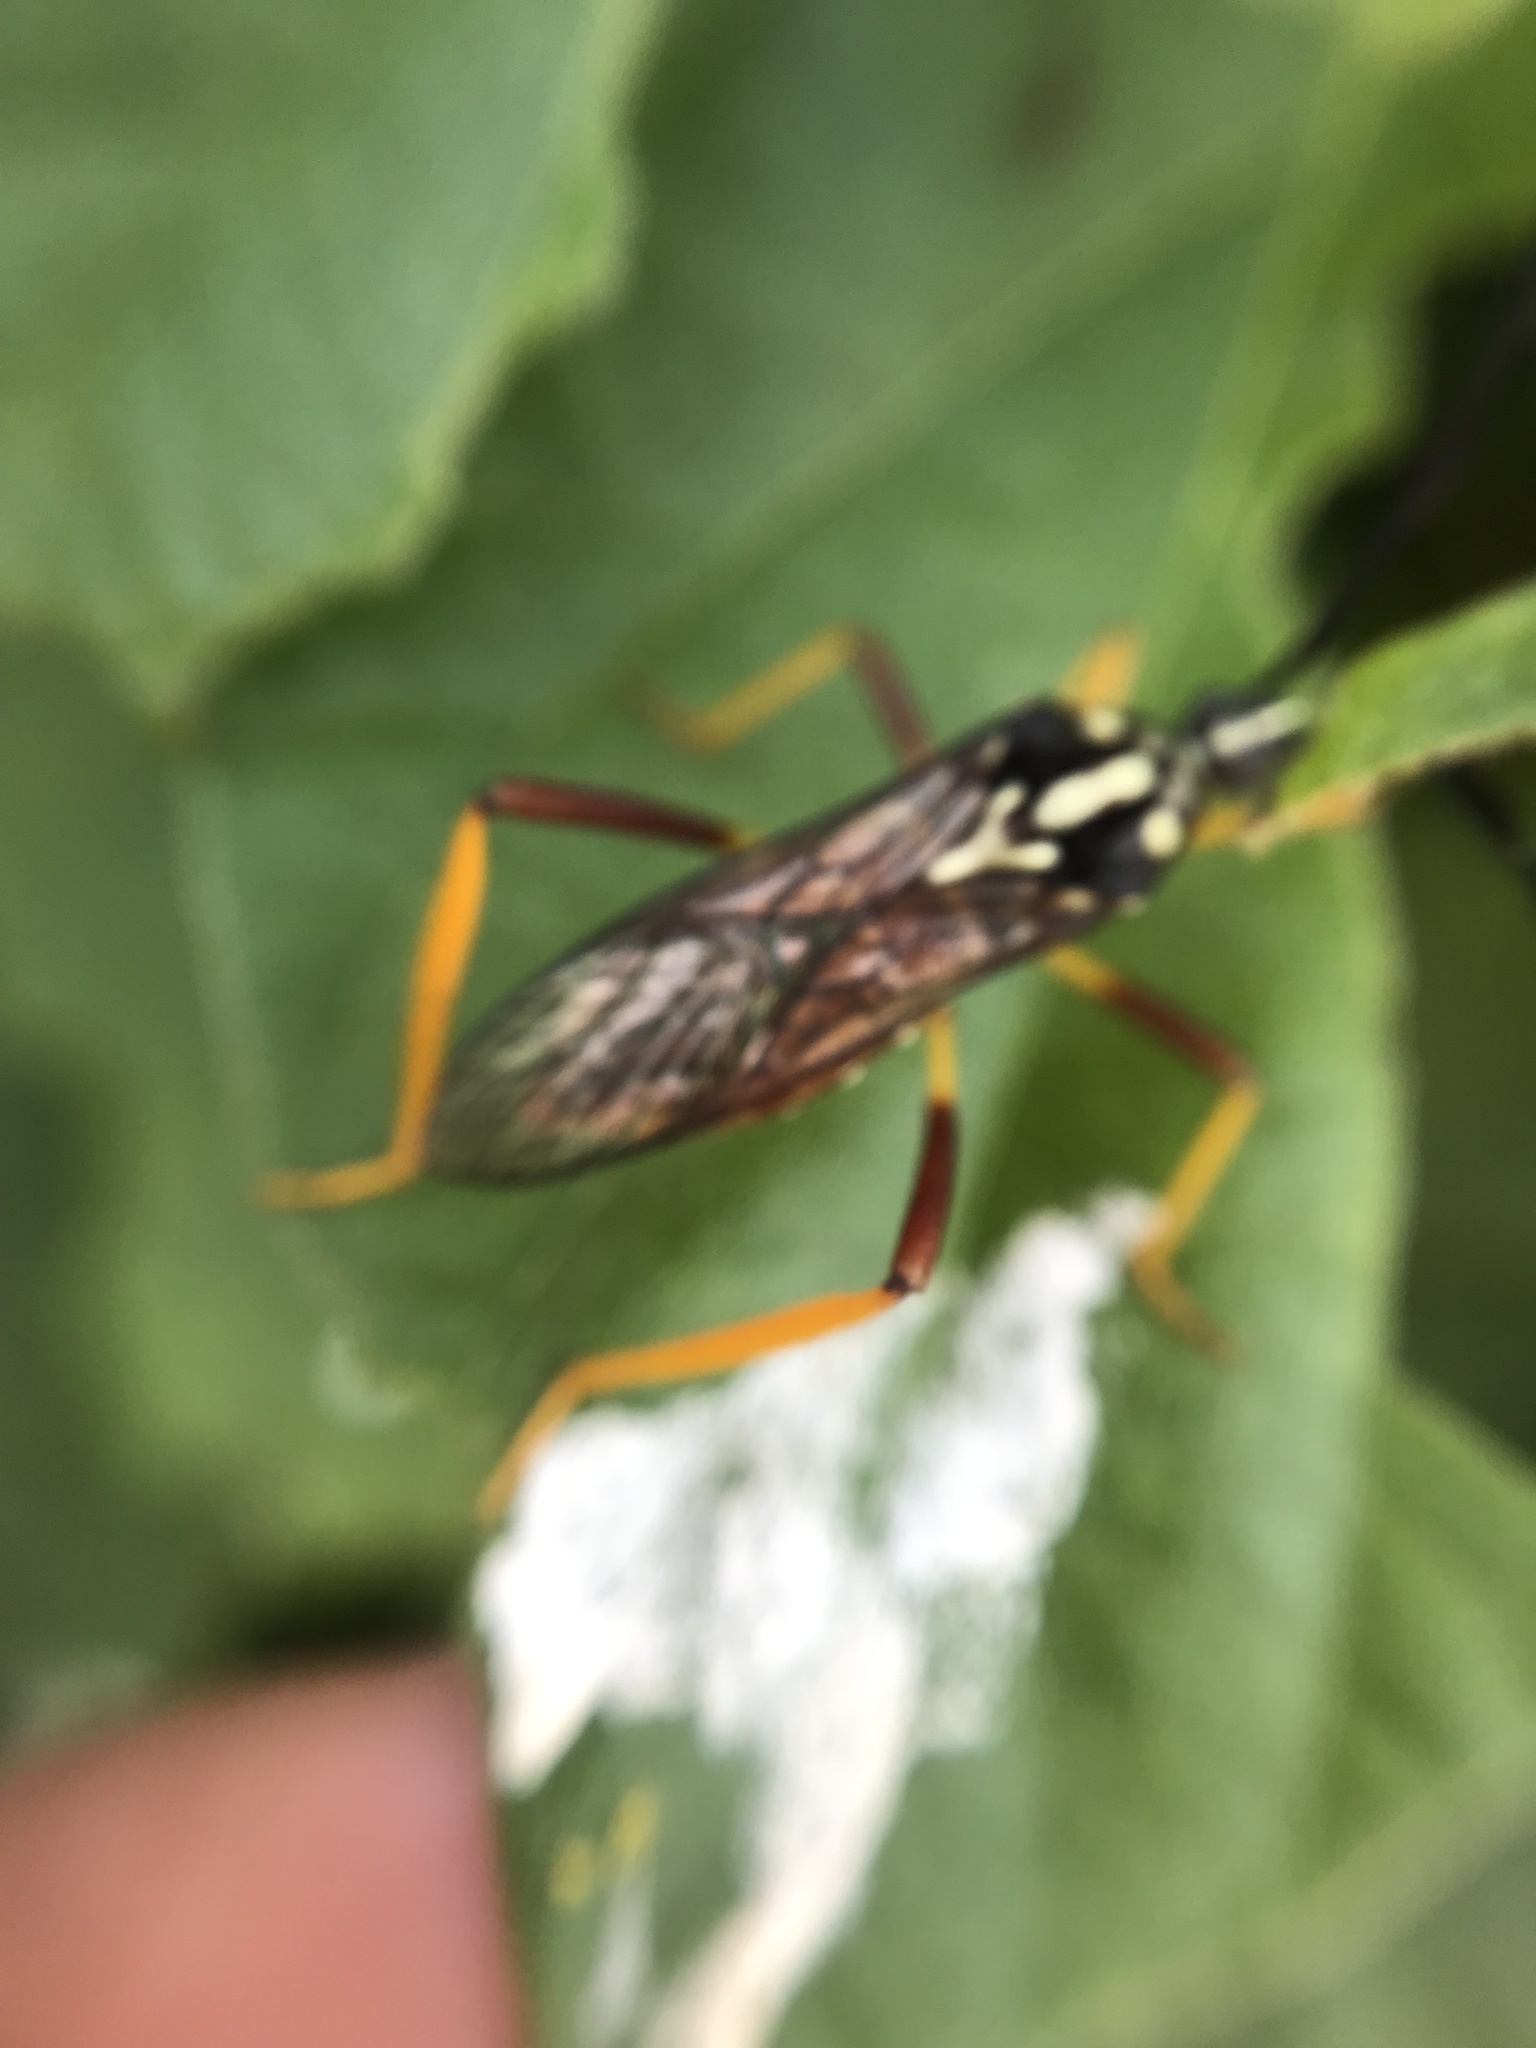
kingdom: Animalia
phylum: Arthropoda
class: Insecta
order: Hemiptera
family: Coreidae
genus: Holhymenia
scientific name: Holhymenia histrio
